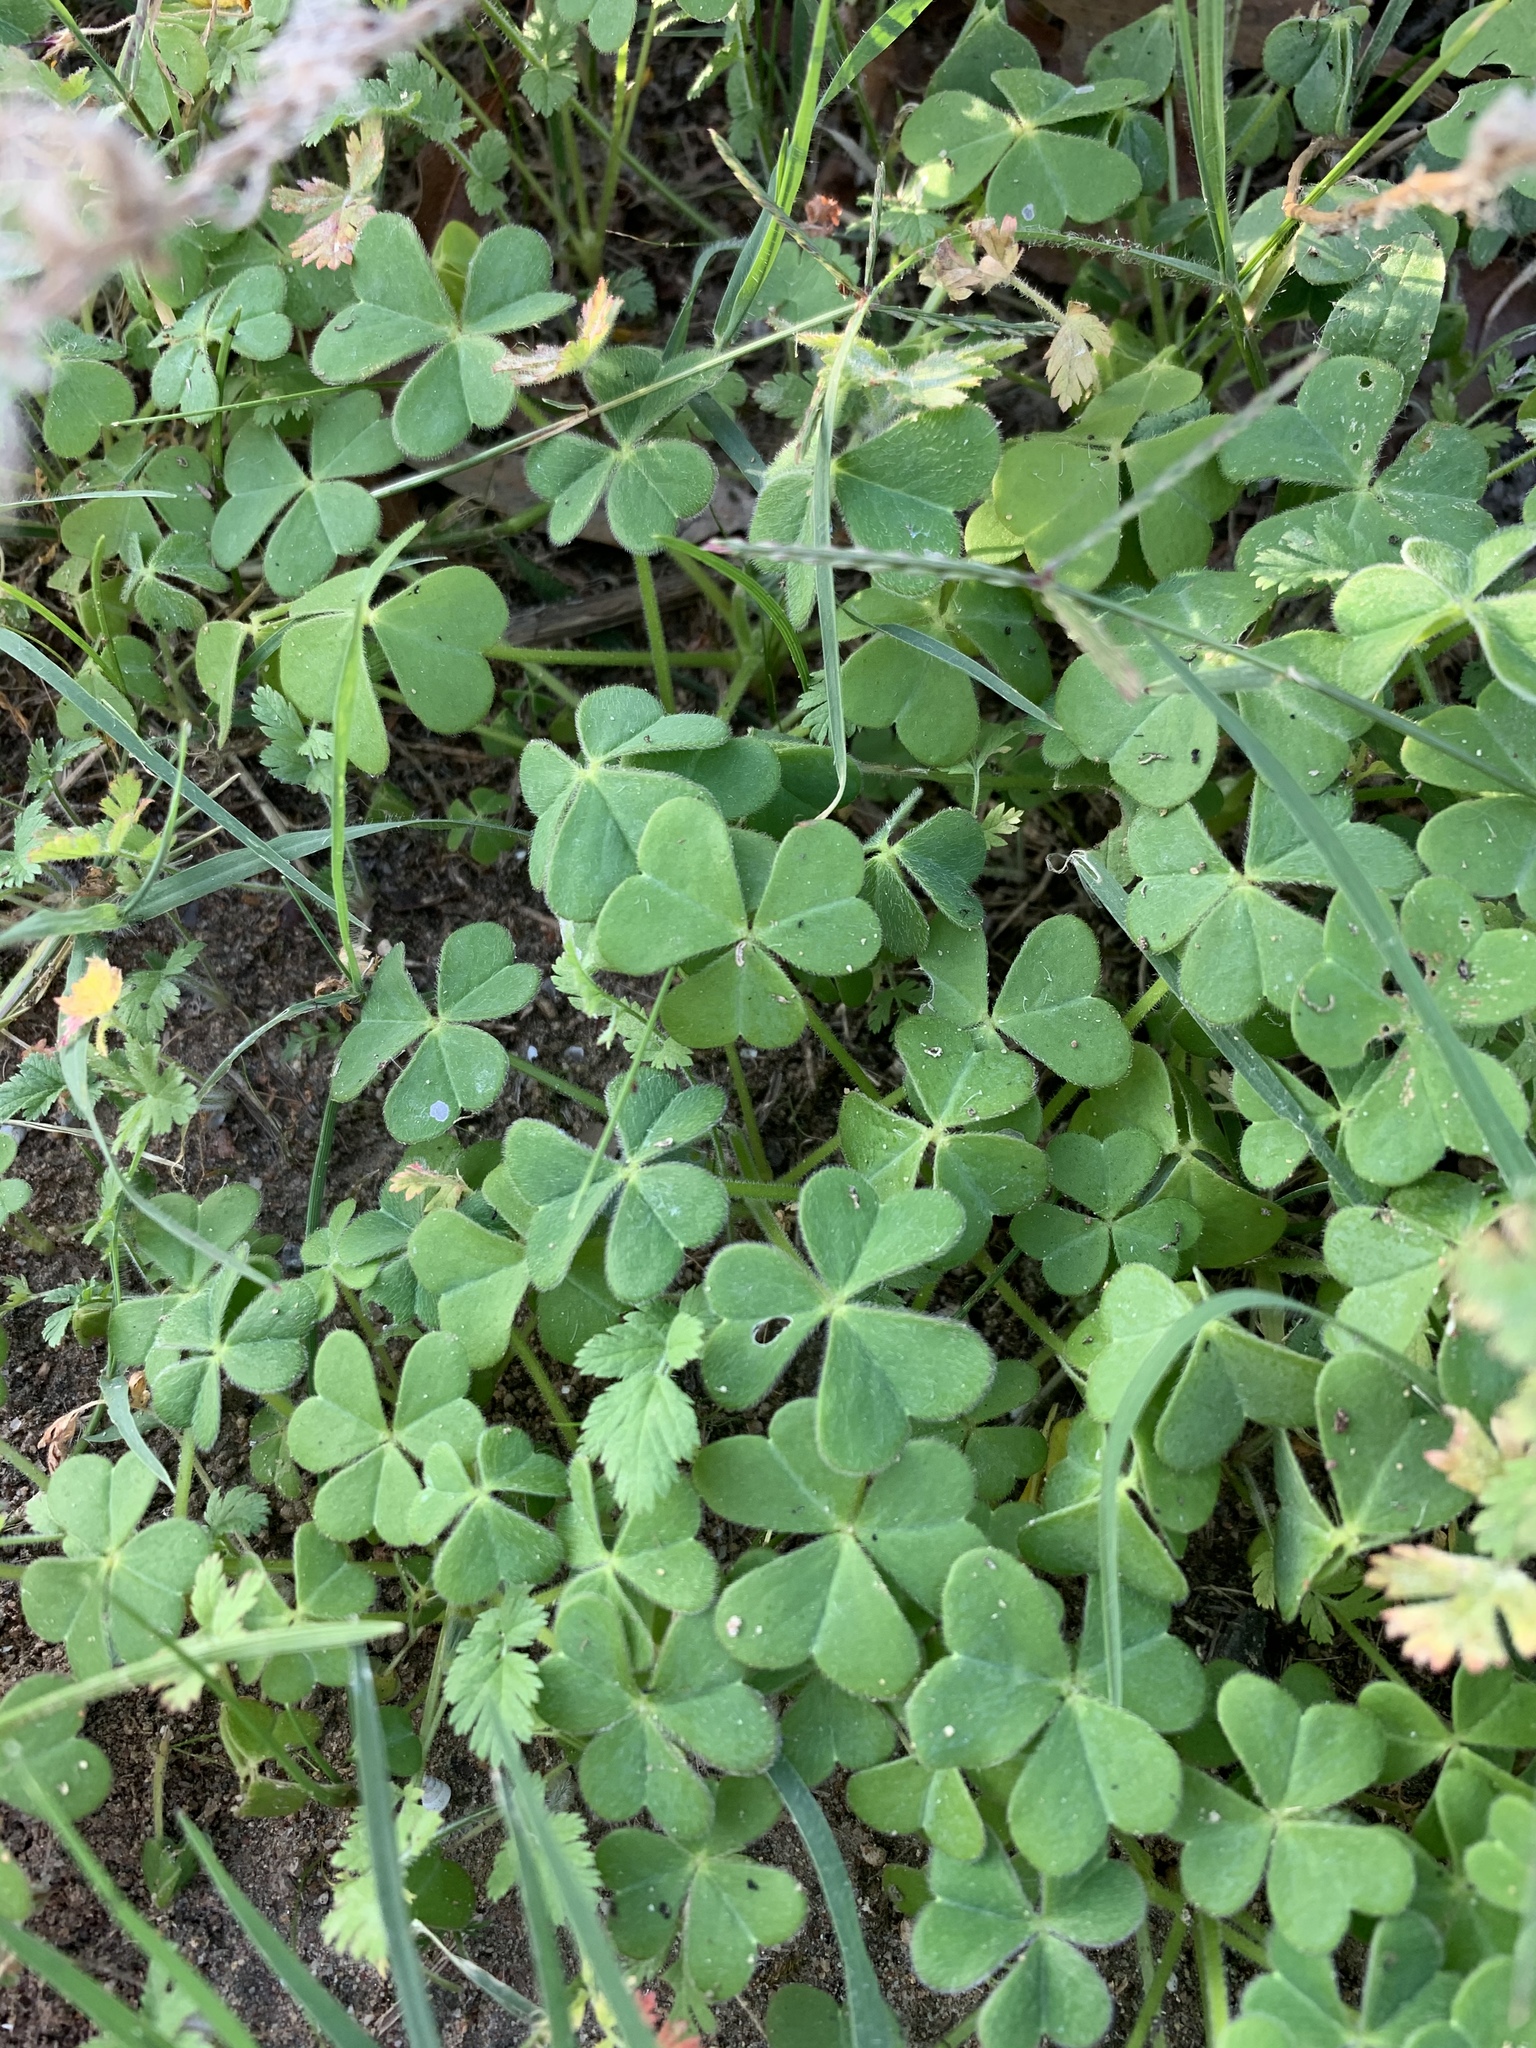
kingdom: Plantae
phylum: Tracheophyta
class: Magnoliopsida
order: Oxalidales
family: Oxalidaceae
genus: Oxalis
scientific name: Oxalis pes-caprae
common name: Bermuda-buttercup
